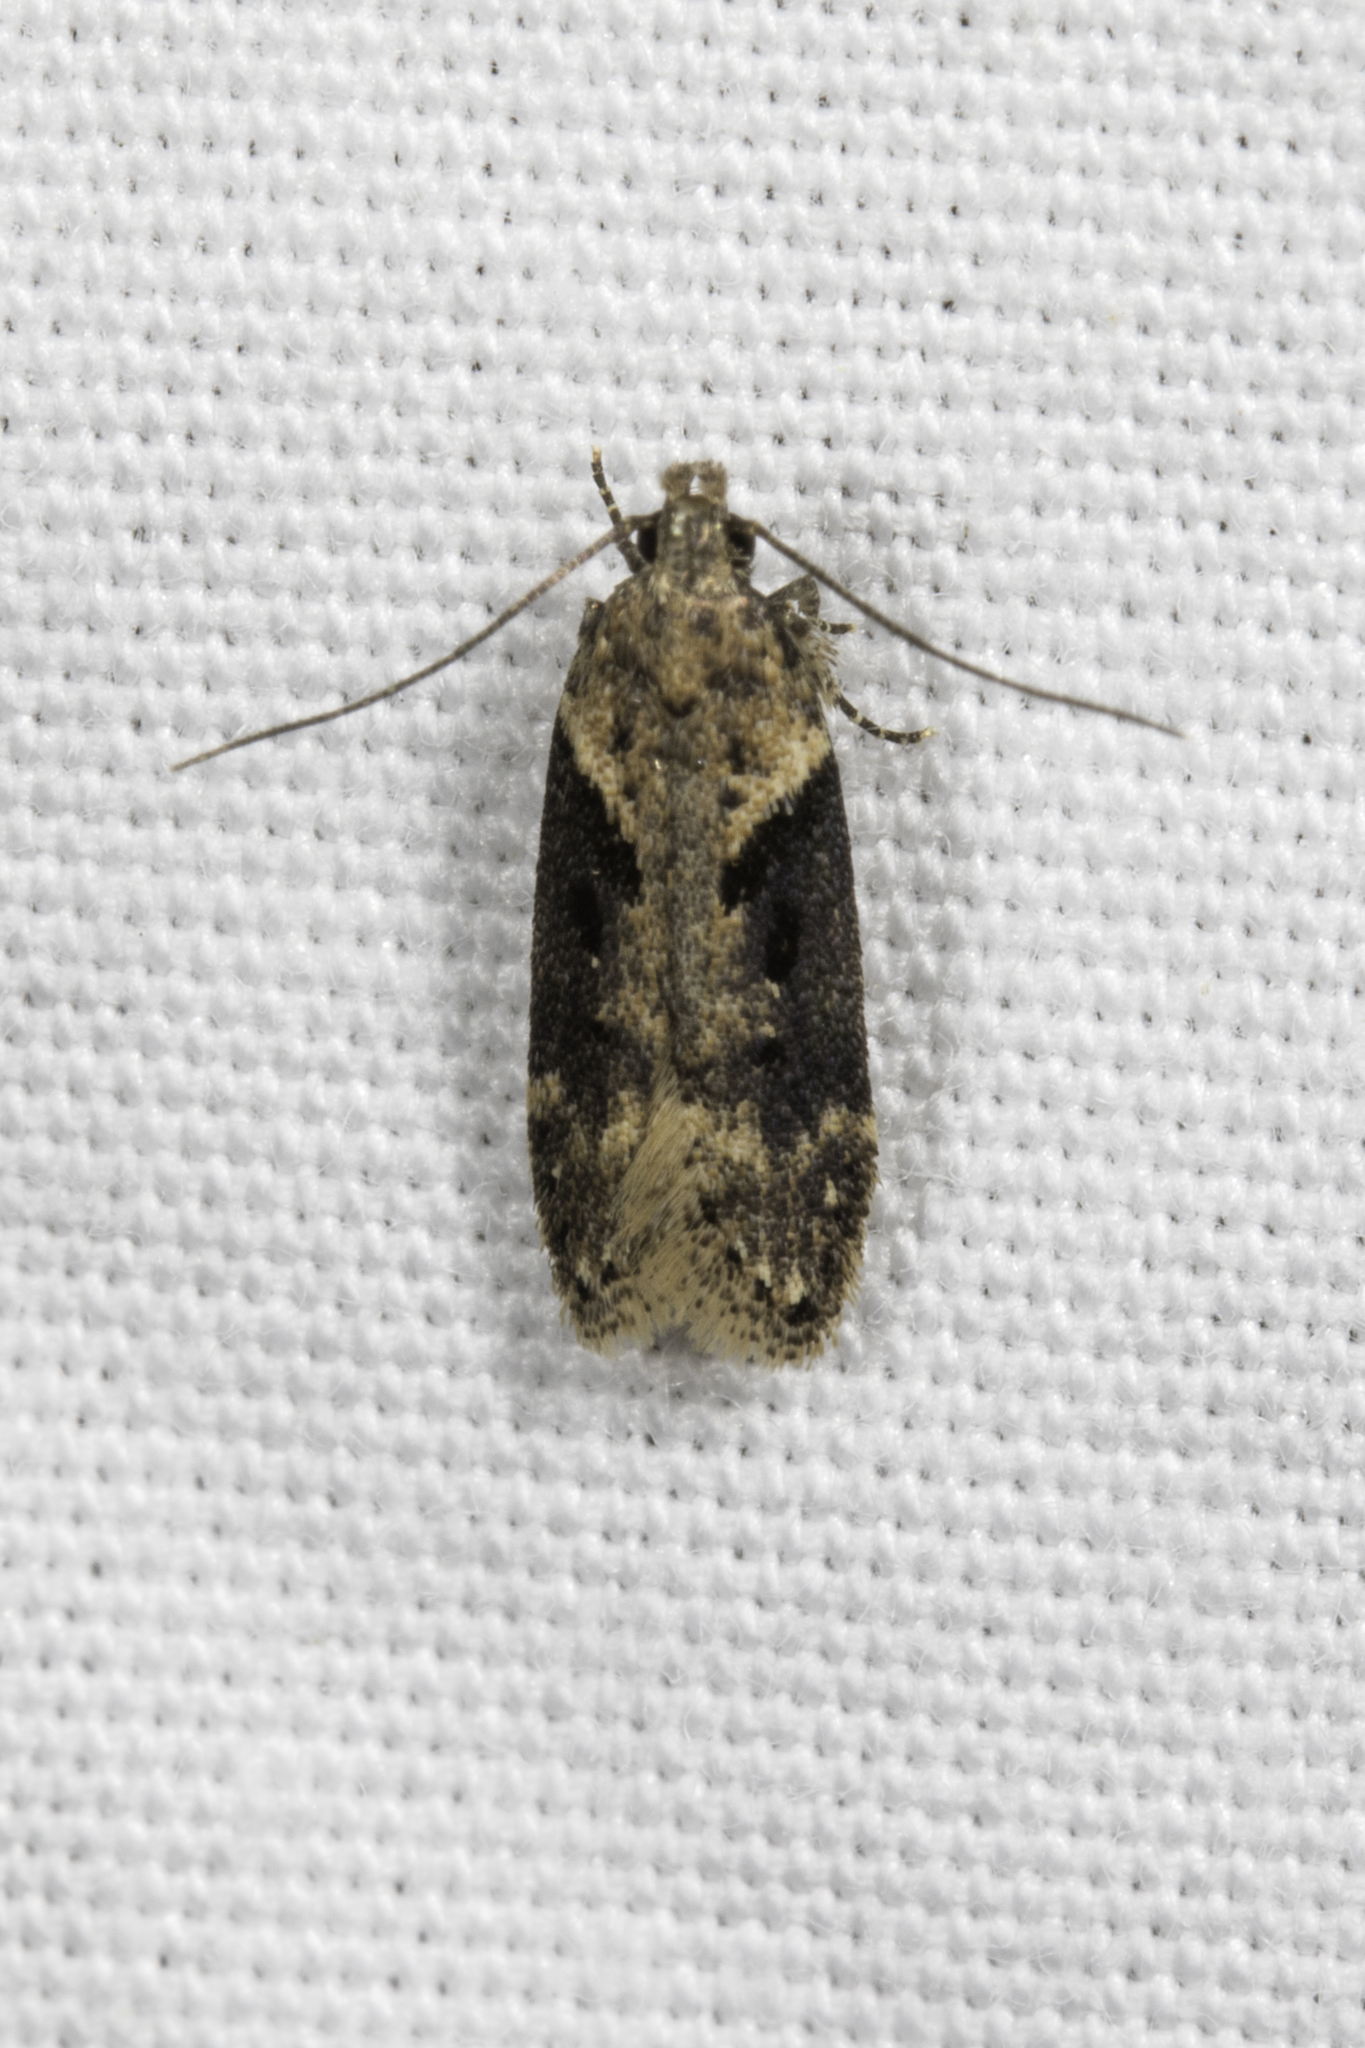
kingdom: Animalia
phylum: Arthropoda
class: Insecta
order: Lepidoptera
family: Gelechiidae
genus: Chionodes
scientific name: Chionodes mediofuscella
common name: Black-smudged chionodes moth
